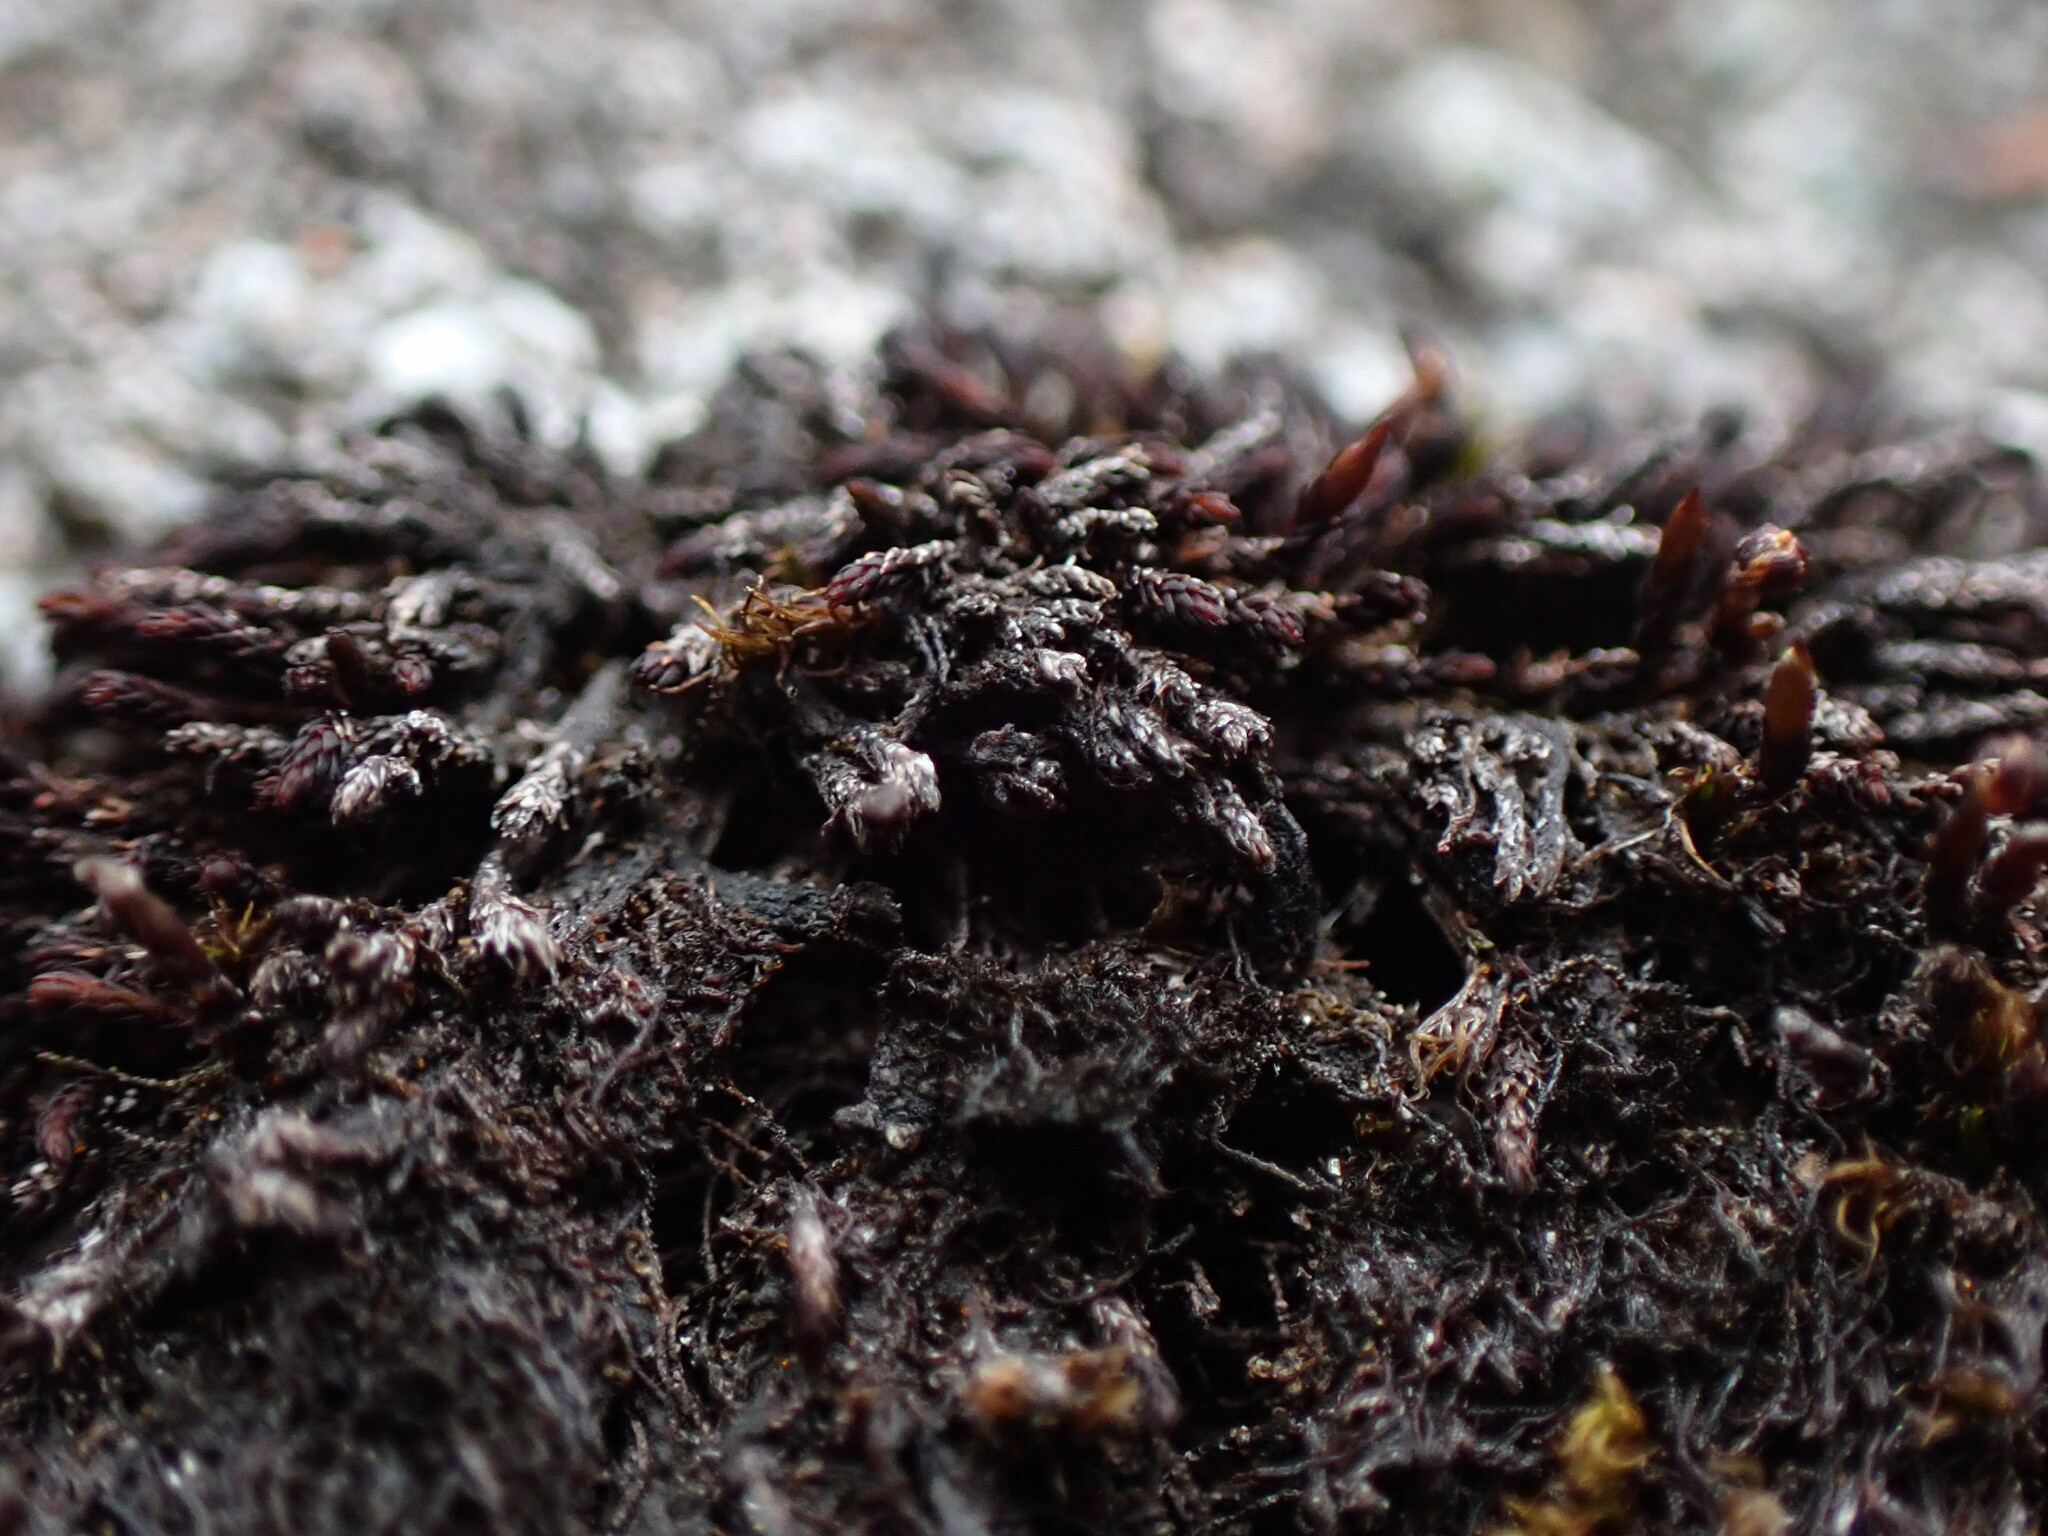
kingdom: Plantae
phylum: Bryophyta
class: Andreaeopsida
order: Andreaeales
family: Andreaeaceae
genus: Andreaea
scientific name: Andreaea rupestris
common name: Black rock moss
